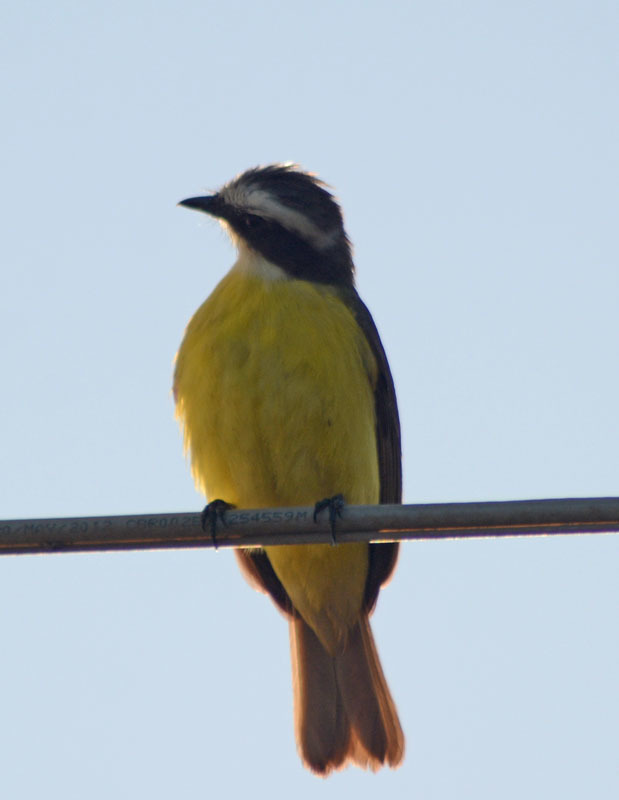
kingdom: Animalia
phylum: Chordata
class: Aves
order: Passeriformes
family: Tyrannidae
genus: Myiozetetes
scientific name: Myiozetetes similis
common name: Social flycatcher
